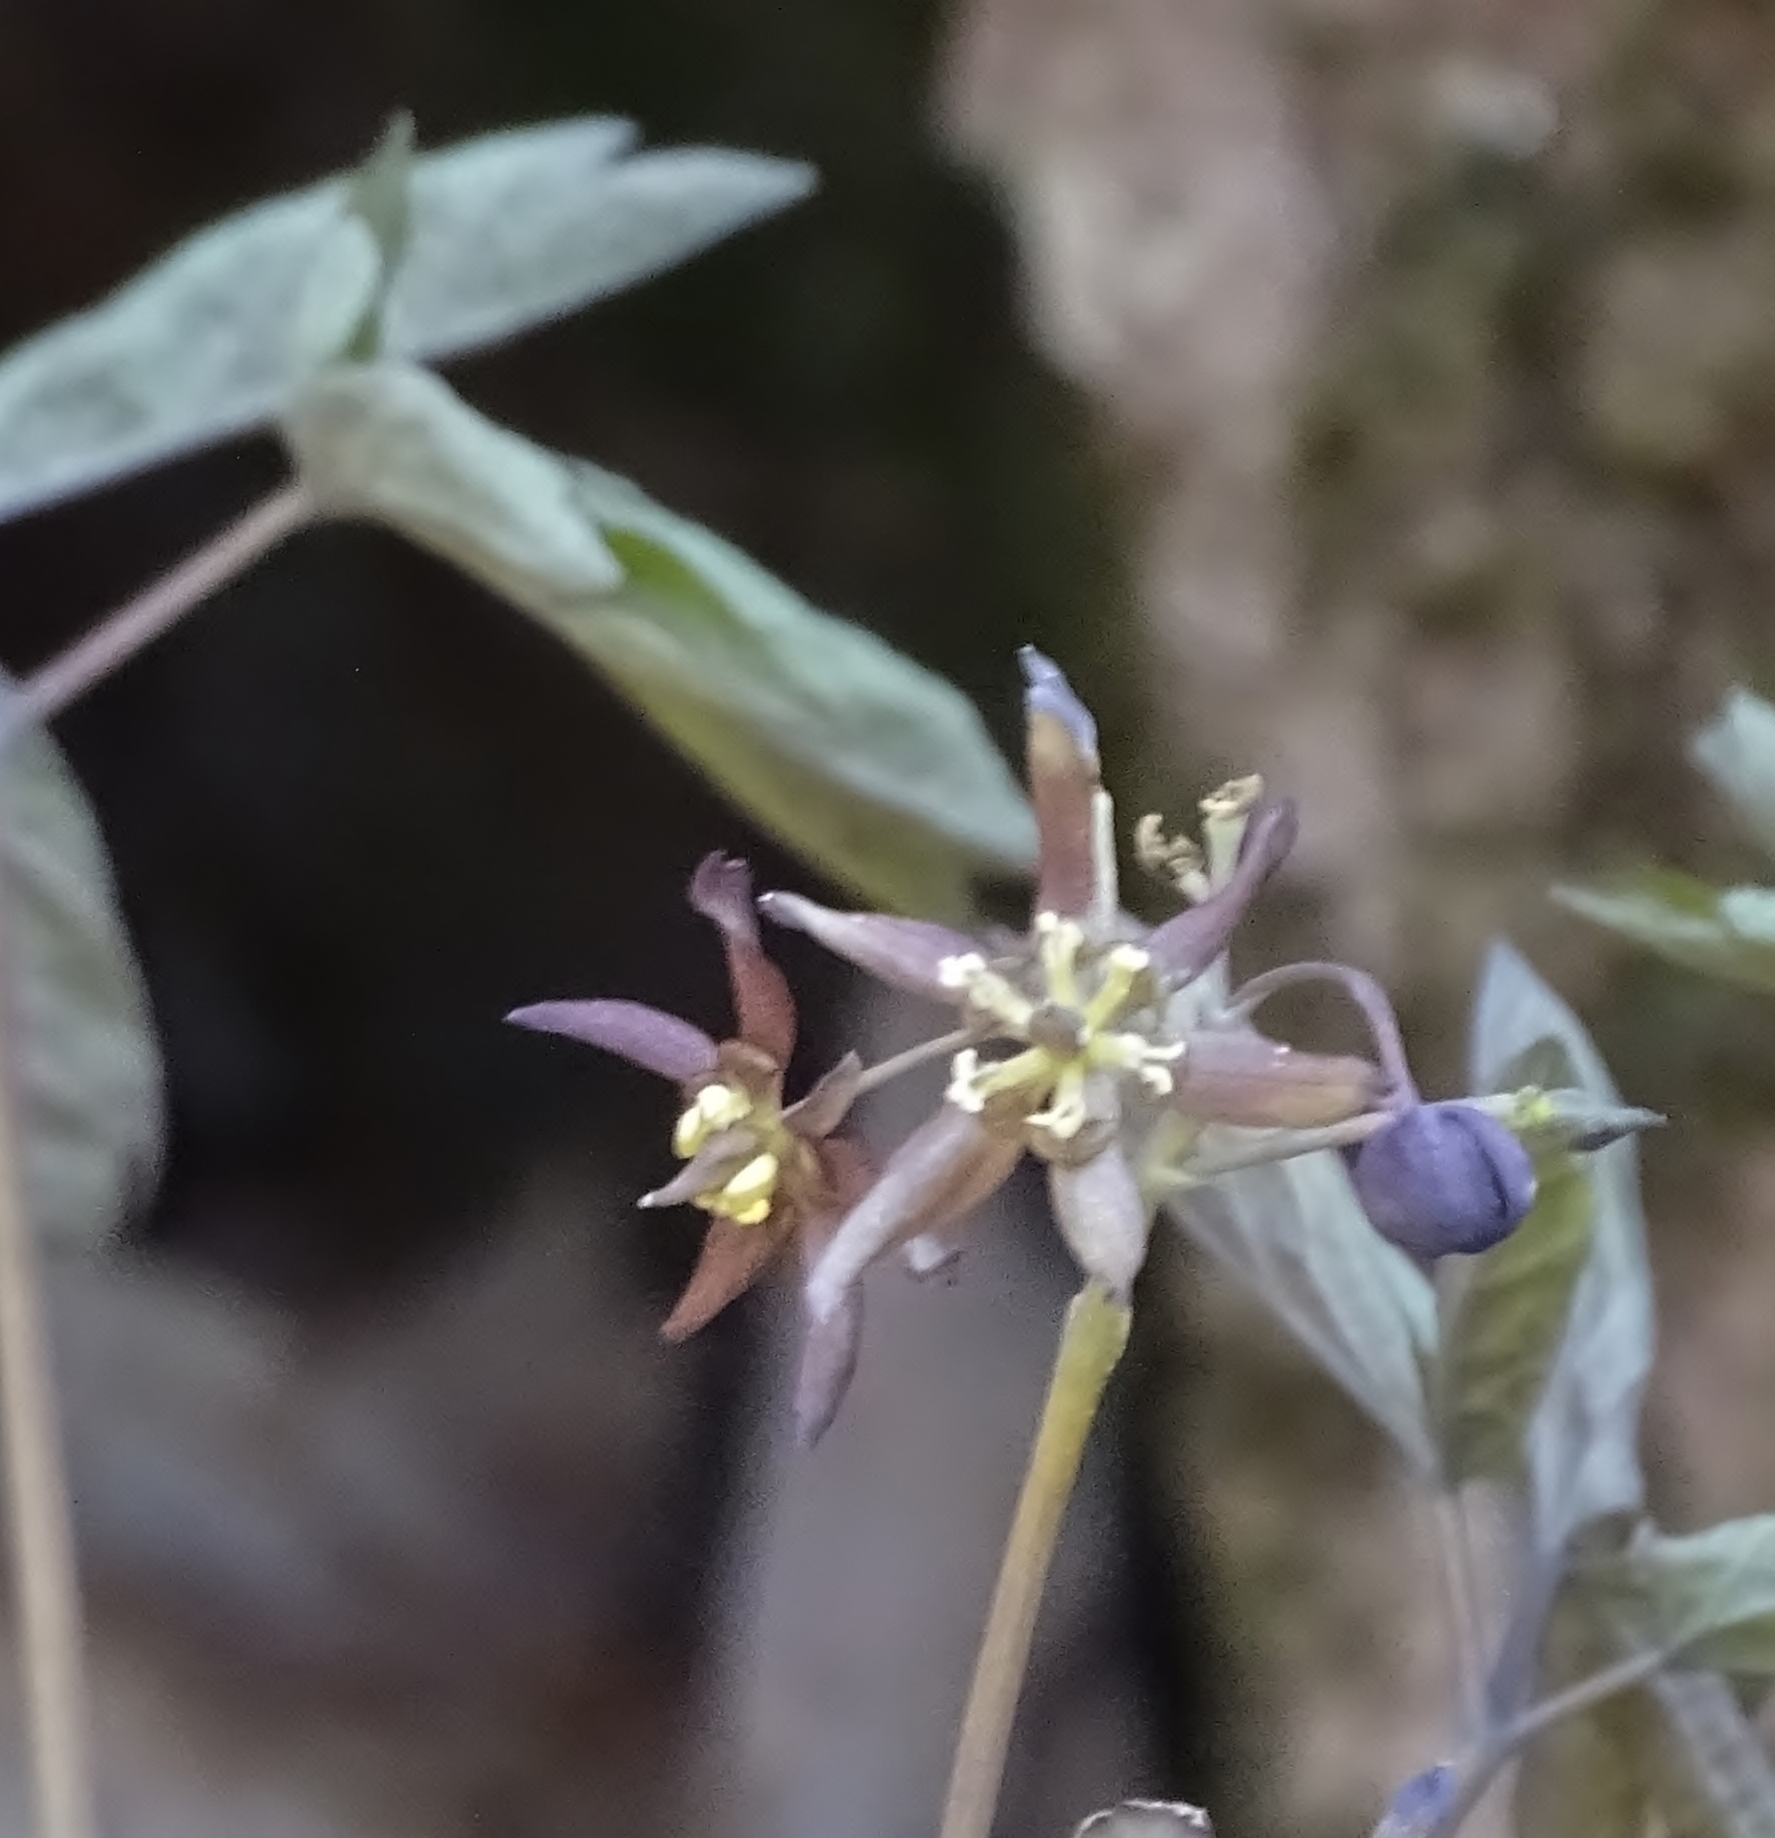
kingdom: Plantae
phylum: Tracheophyta
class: Magnoliopsida
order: Ranunculales
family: Berberidaceae
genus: Caulophyllum
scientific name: Caulophyllum giganteum
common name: Blue cohosh
